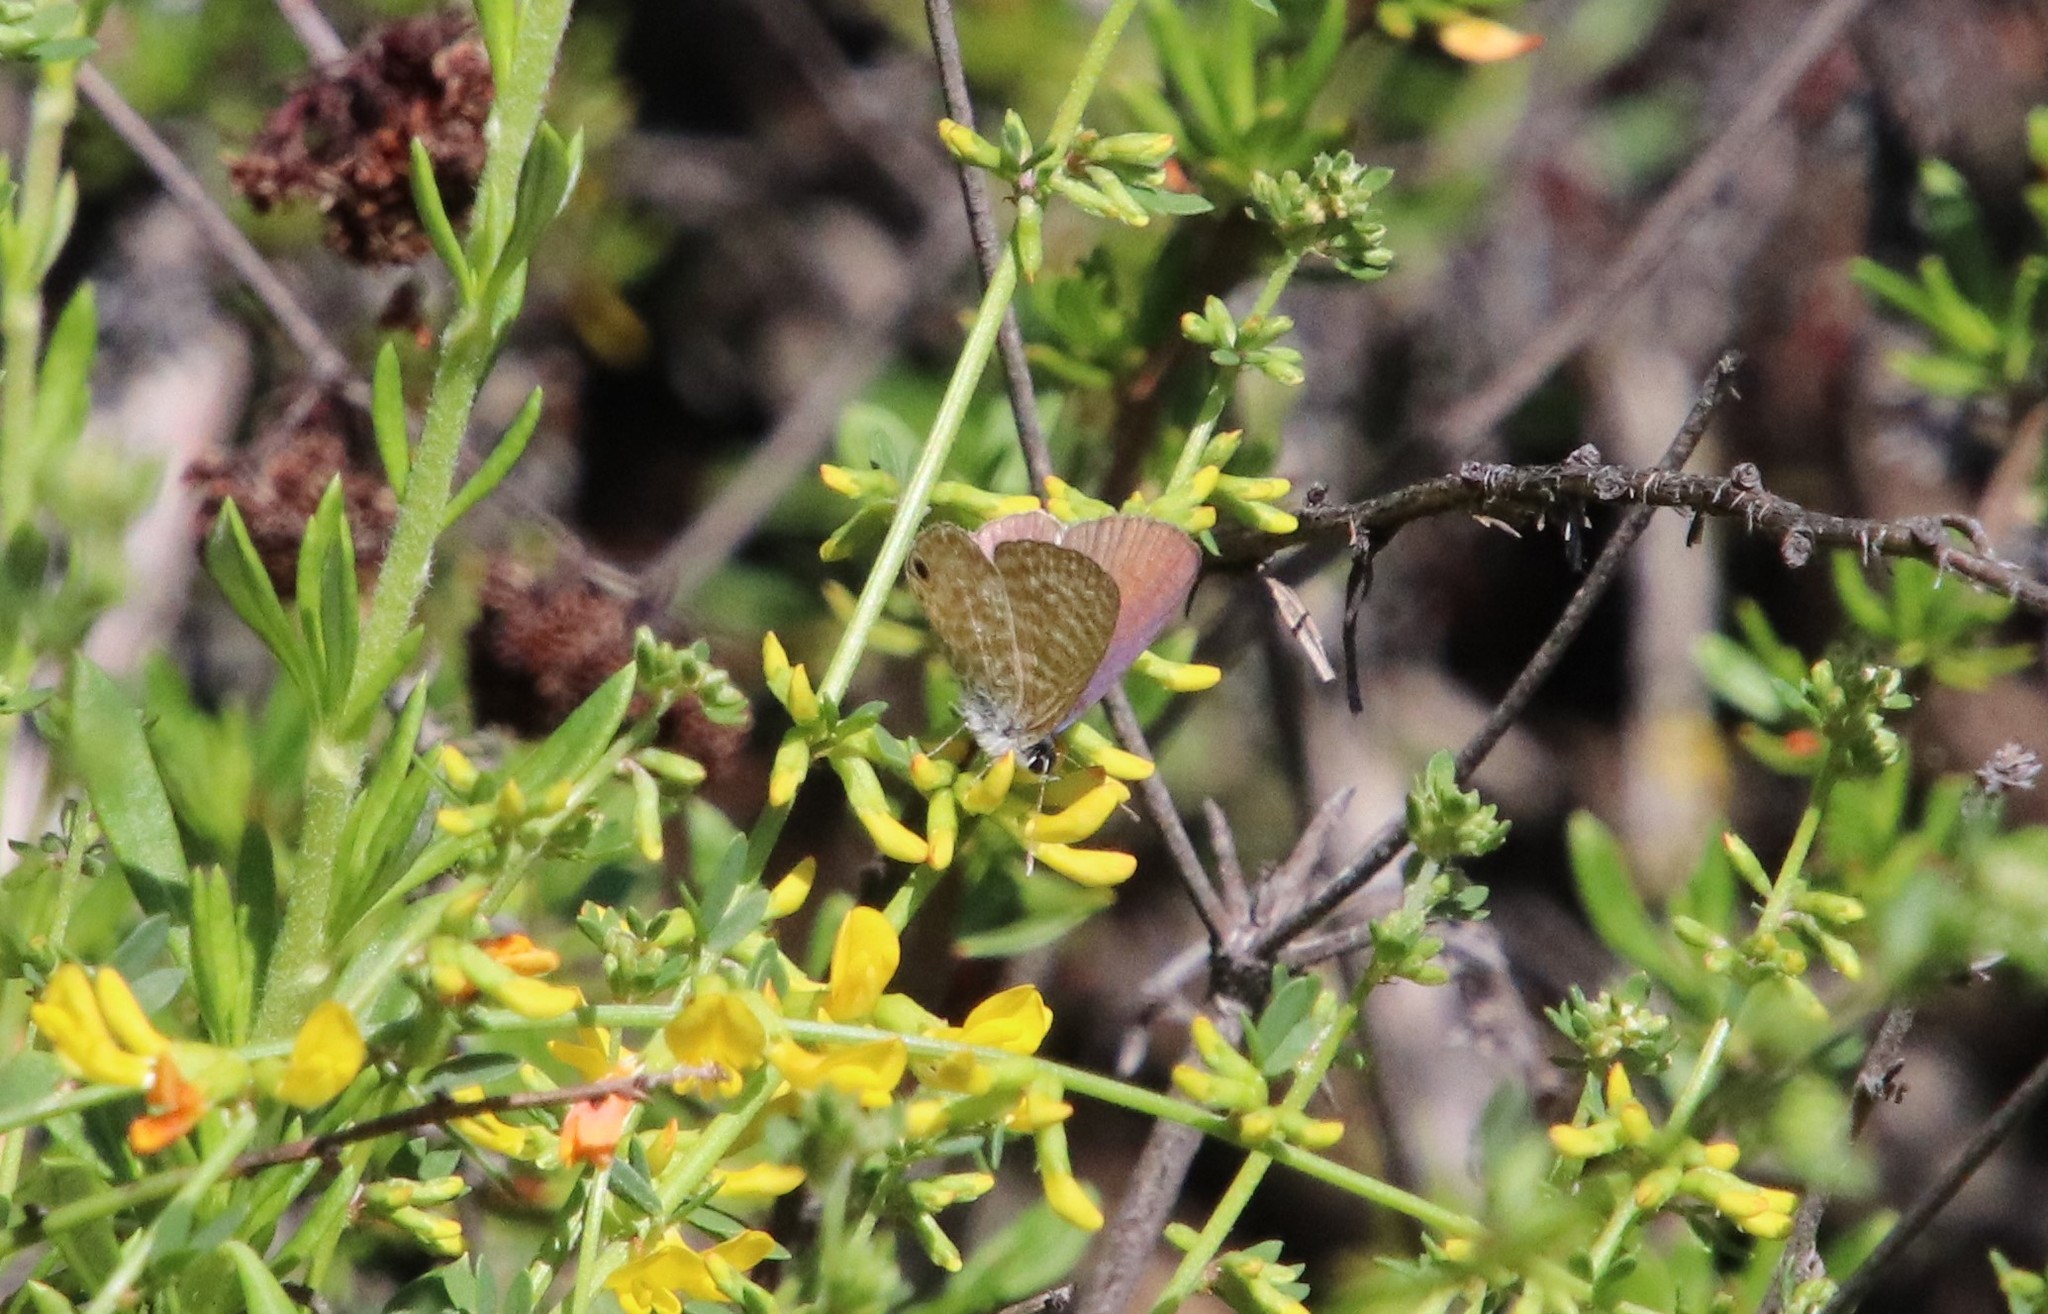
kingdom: Animalia
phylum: Arthropoda
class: Insecta
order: Lepidoptera
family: Lycaenidae
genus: Leptotes
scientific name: Leptotes marina
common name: Marine blue
